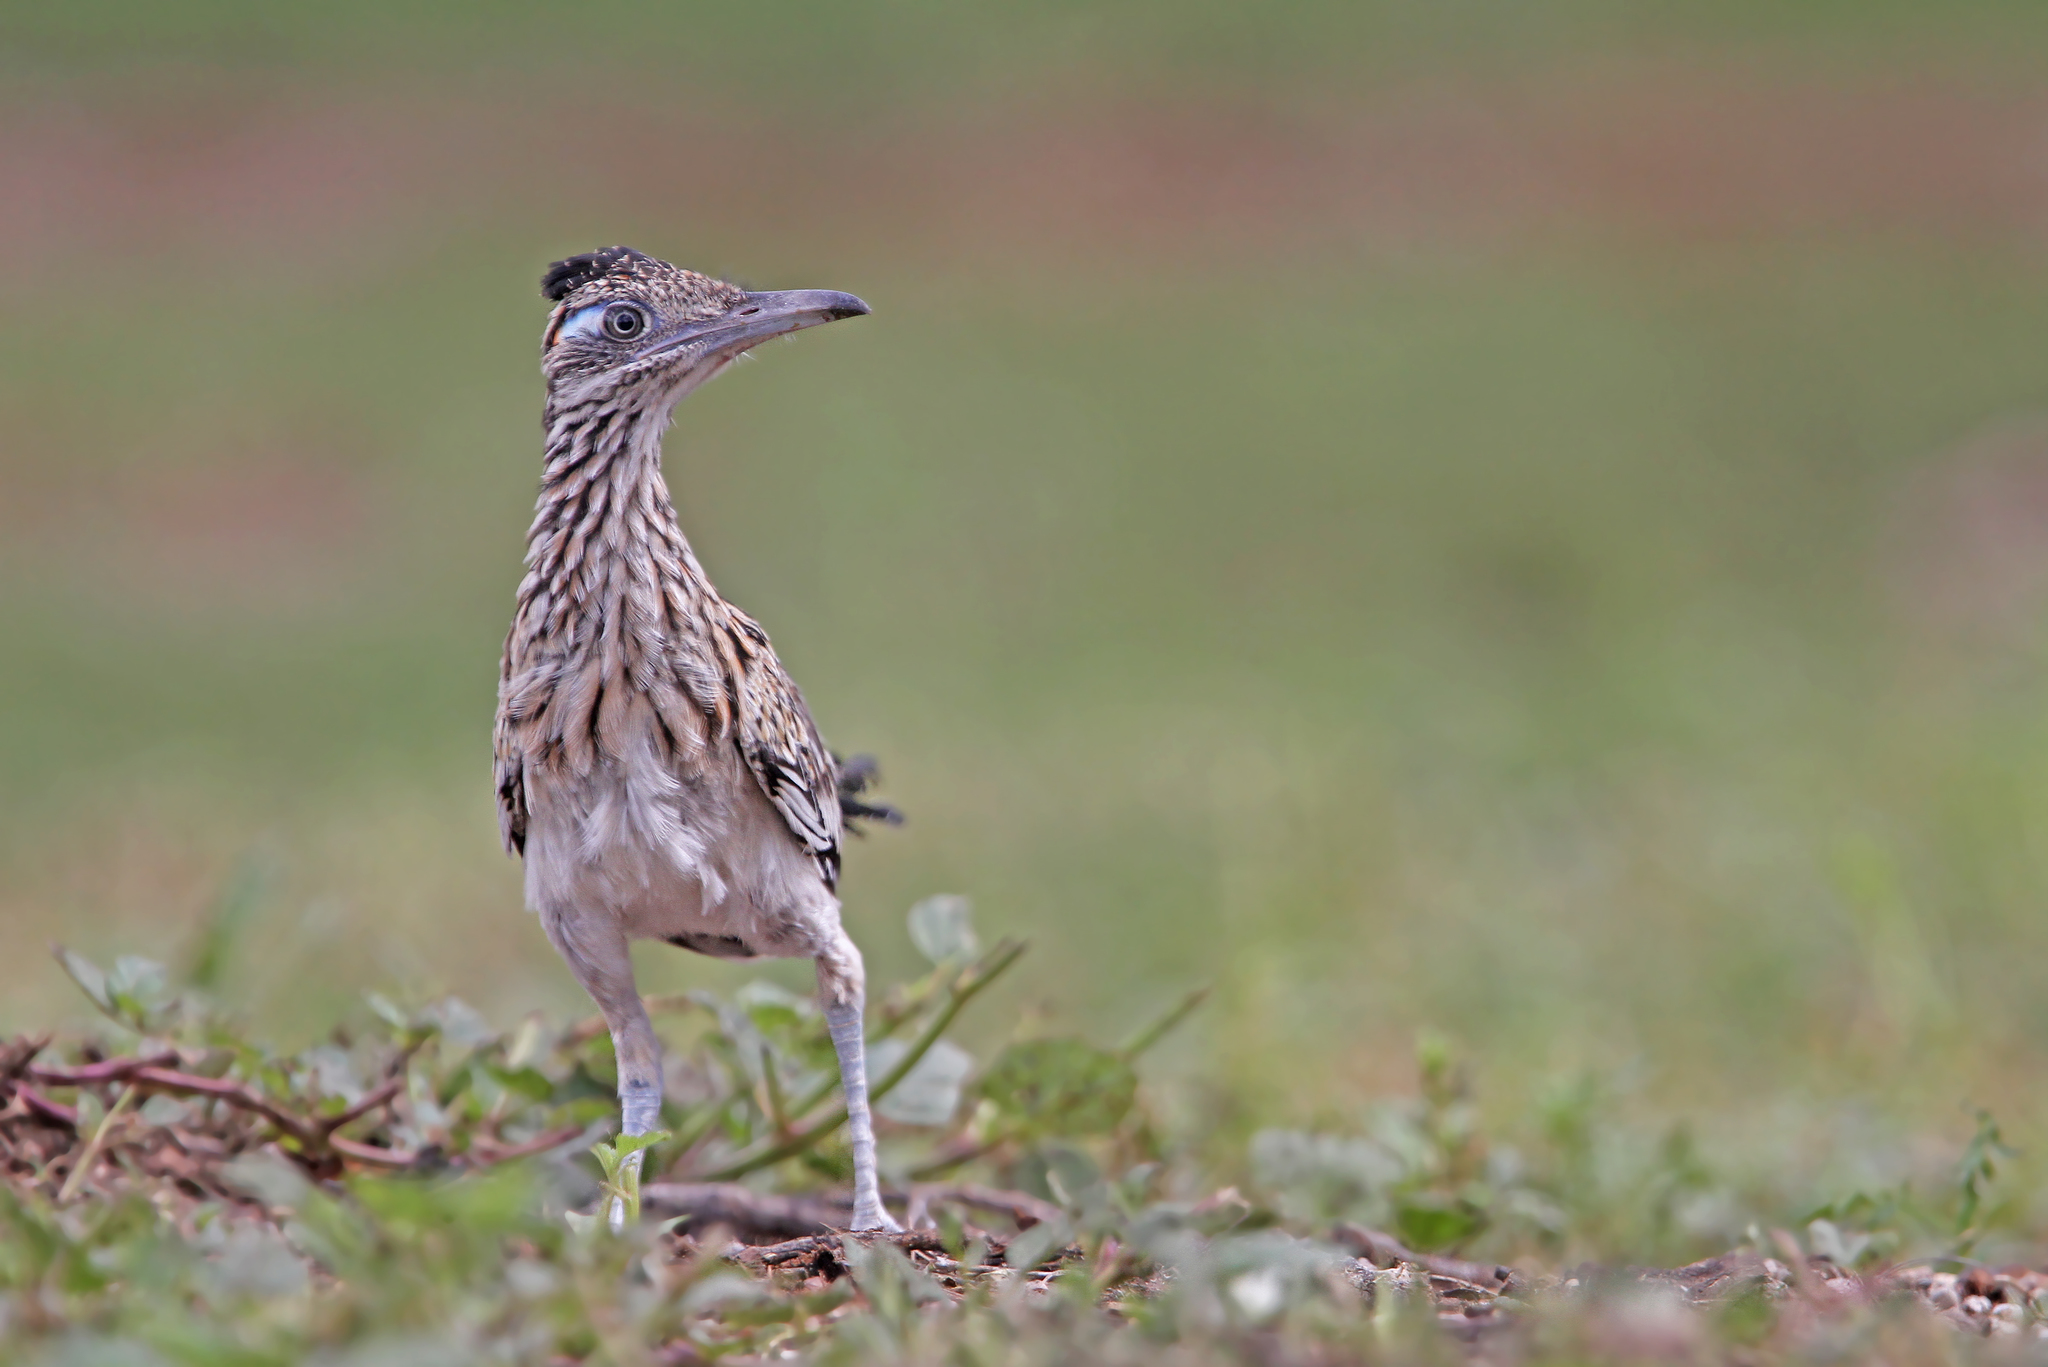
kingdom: Animalia
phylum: Chordata
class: Aves
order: Cuculiformes
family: Cuculidae
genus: Geococcyx
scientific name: Geococcyx californianus
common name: Greater roadrunner
